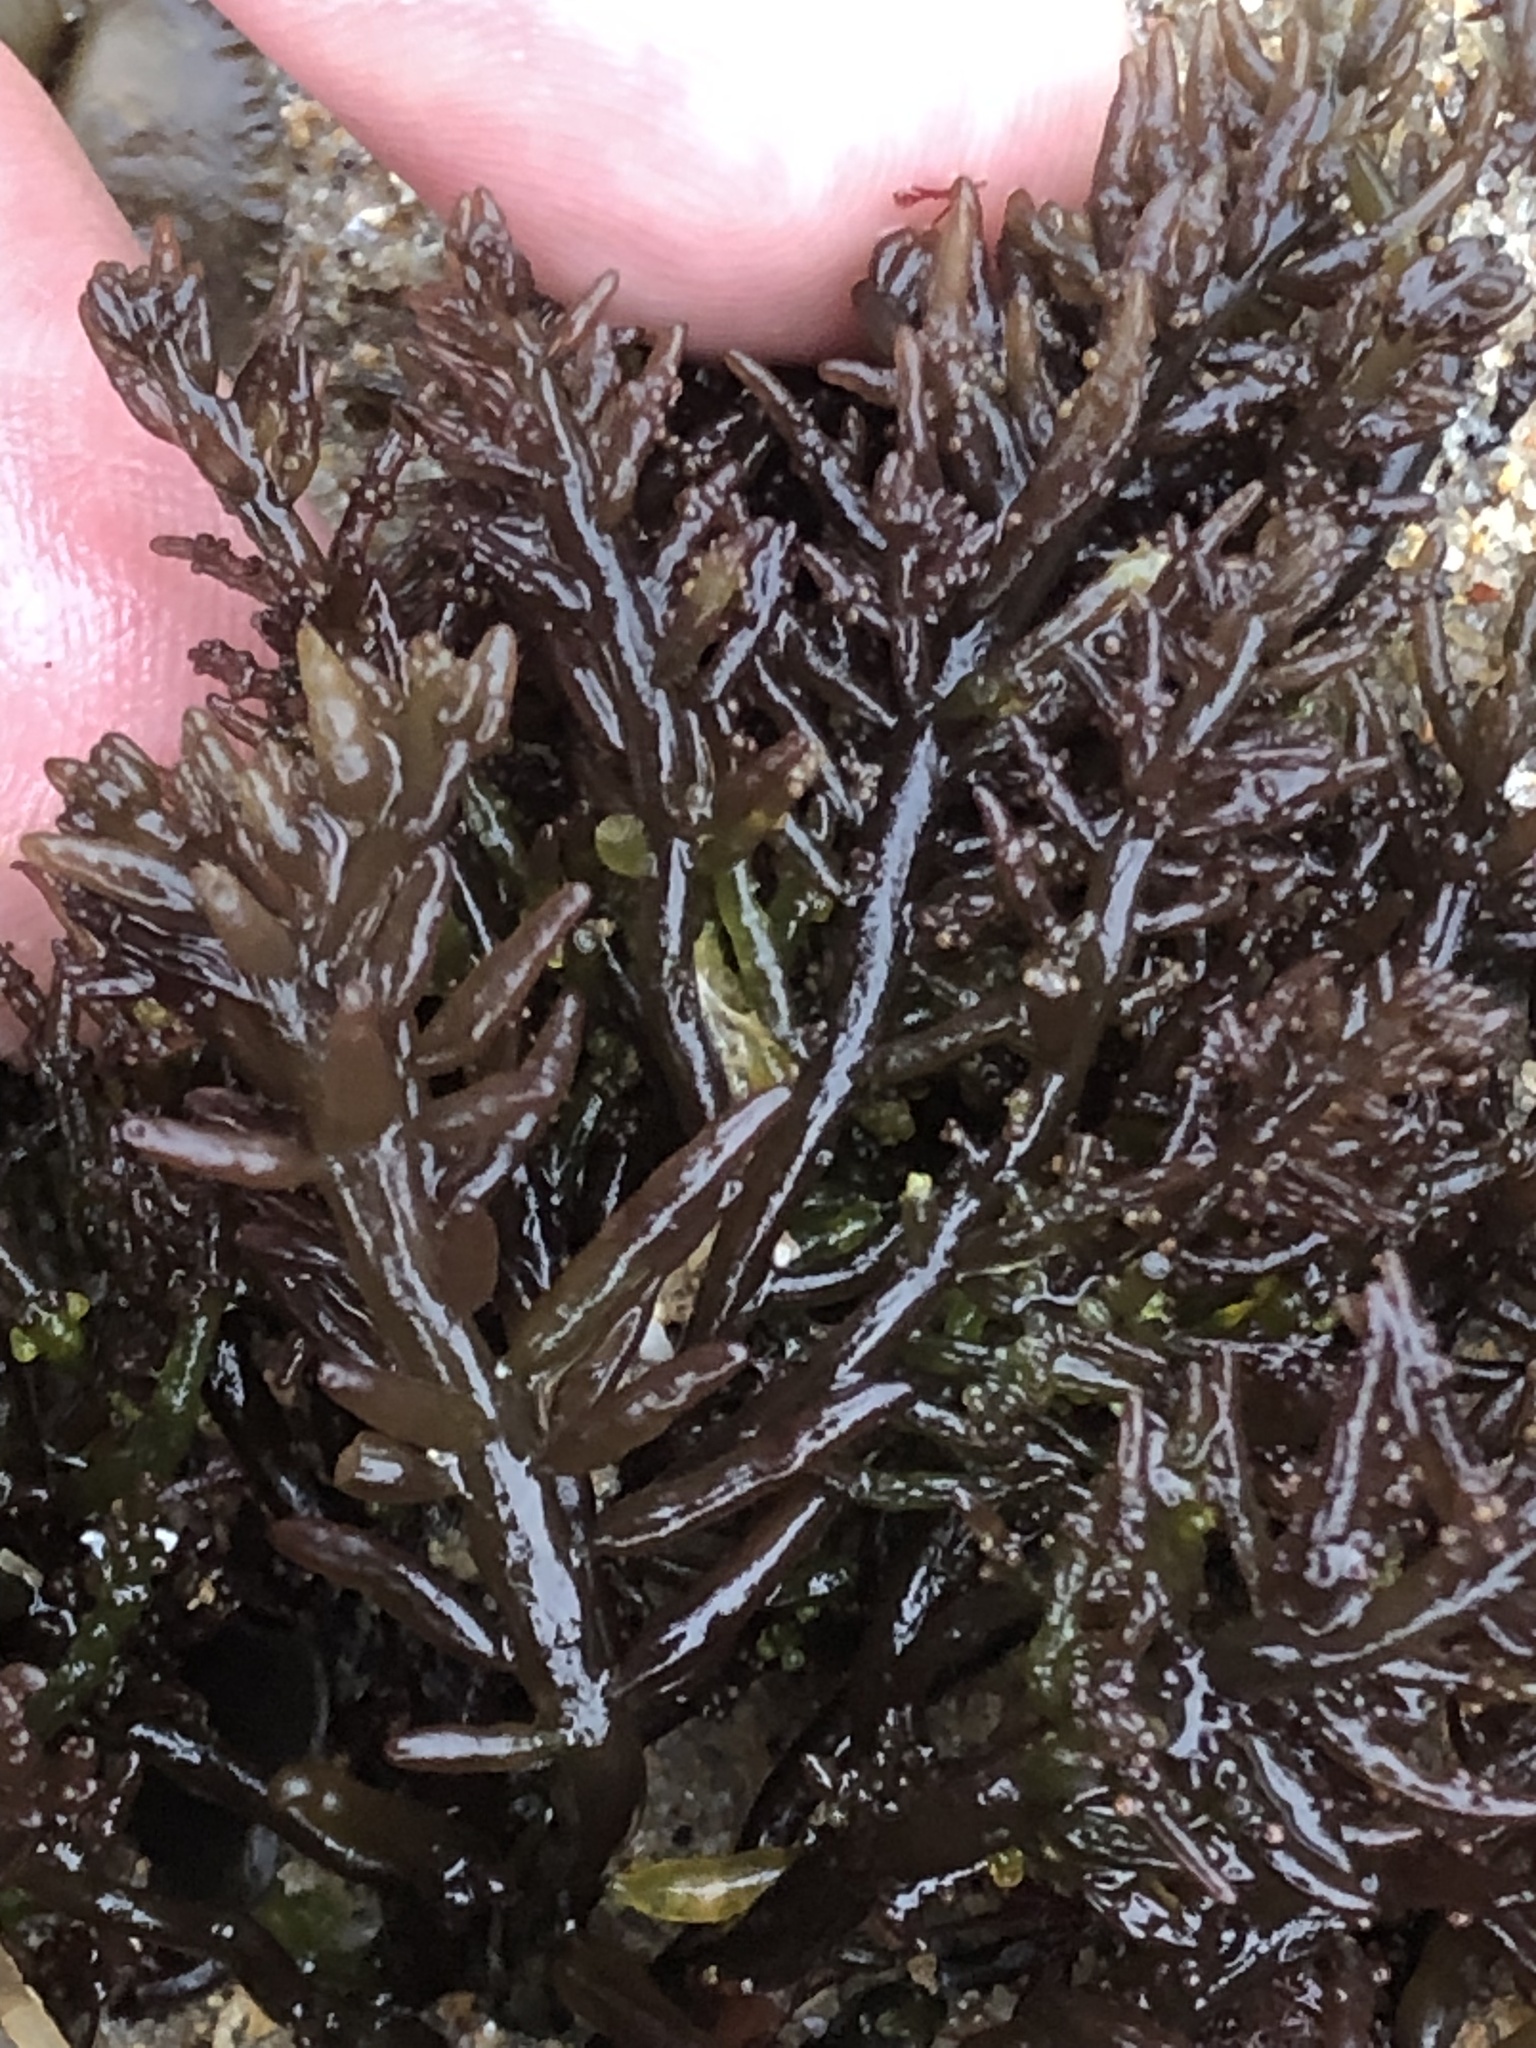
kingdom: Plantae
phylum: Rhodophyta
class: Florideophyceae
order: Rhodymeniales
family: Champiaceae
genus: Neogastroclonium
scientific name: Neogastroclonium subarticulatum
